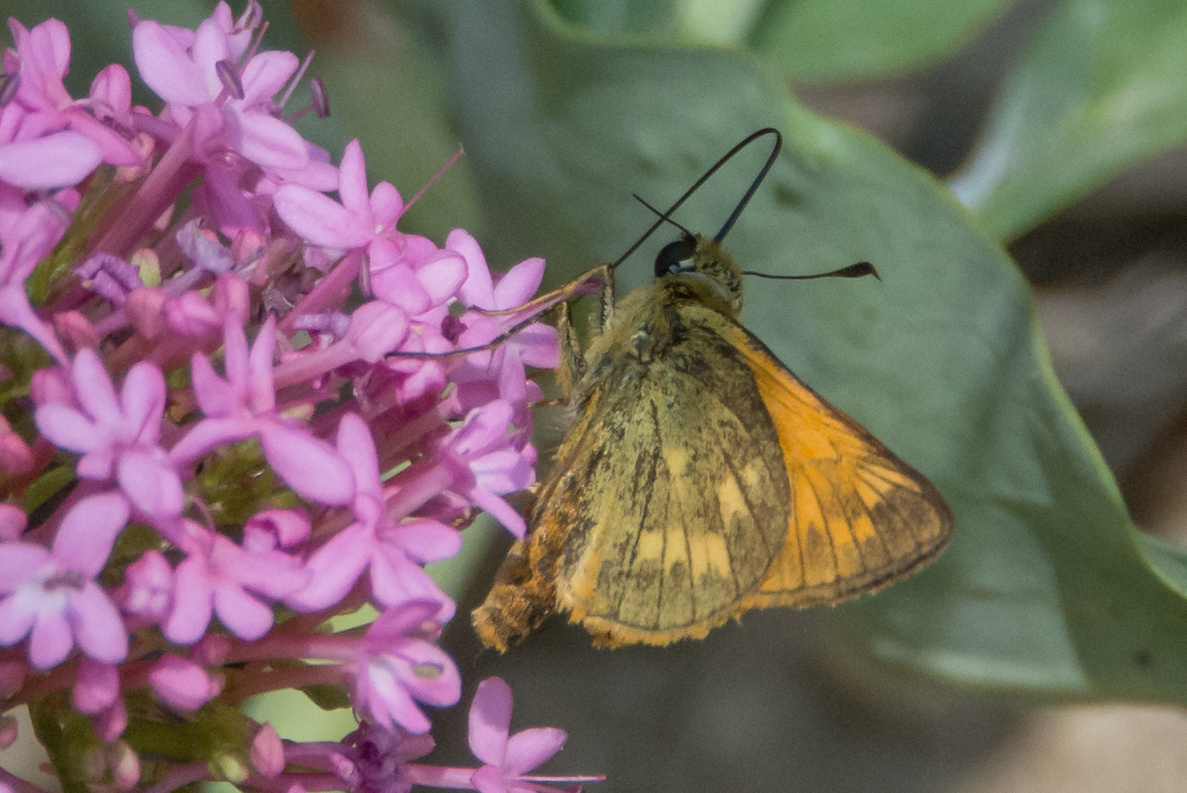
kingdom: Animalia
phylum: Arthropoda
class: Insecta
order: Lepidoptera
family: Hesperiidae
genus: Ochlodes
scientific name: Ochlodes venata
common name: Large skipper
